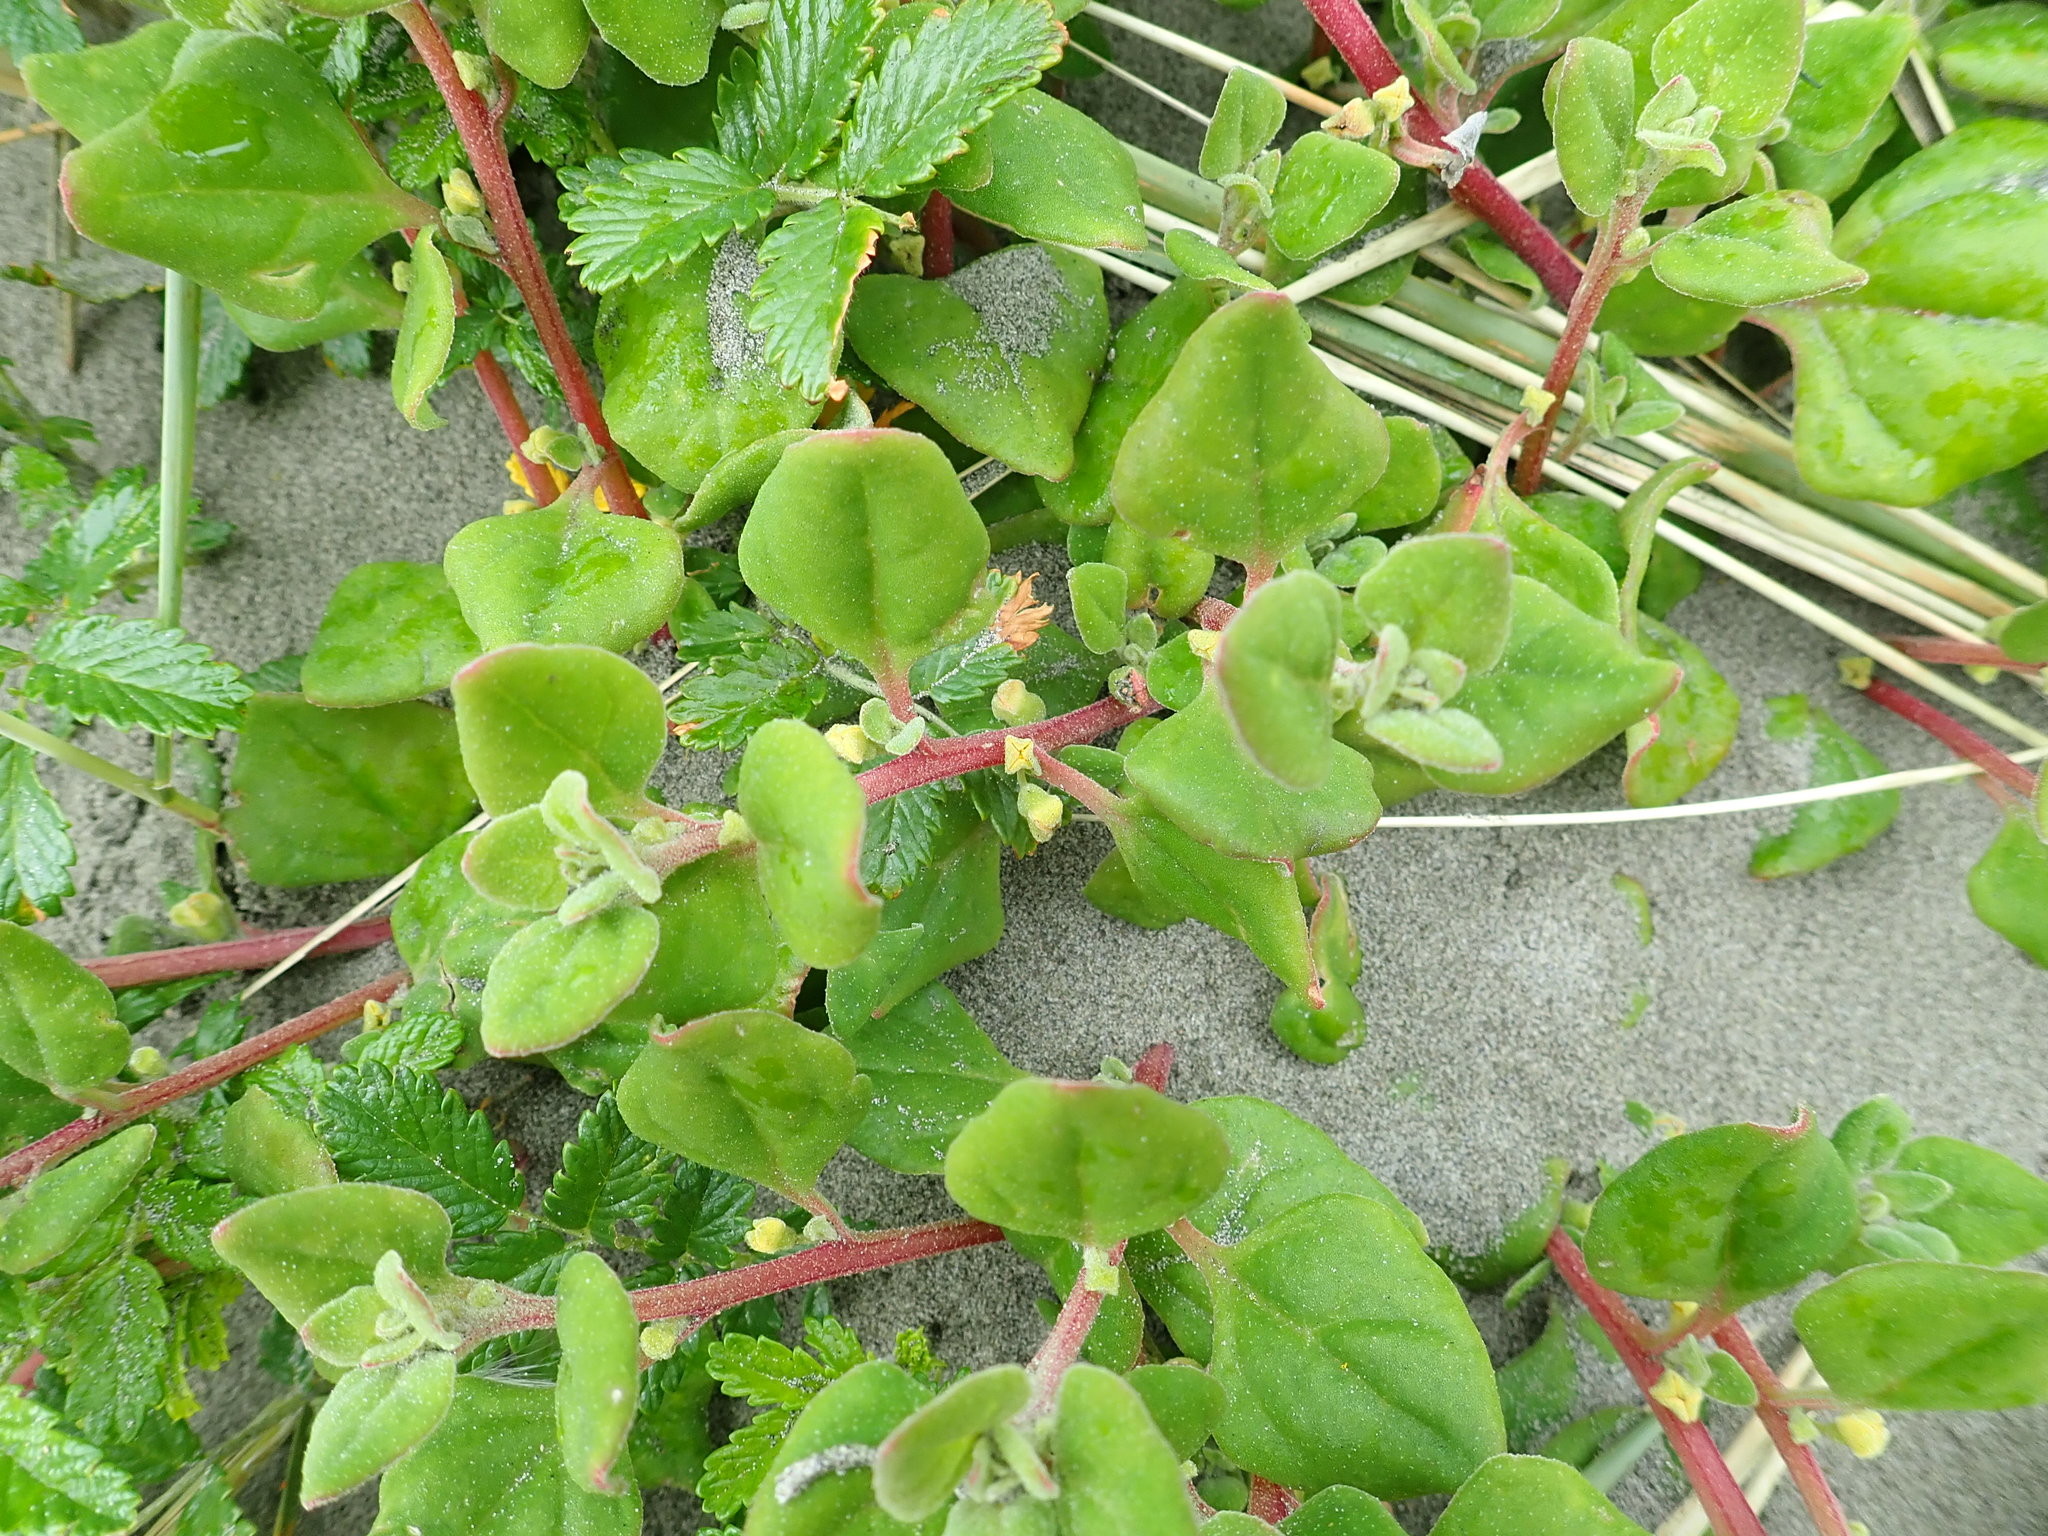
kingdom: Plantae
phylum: Tracheophyta
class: Magnoliopsida
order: Caryophyllales
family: Aizoaceae
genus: Tetragonia
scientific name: Tetragonia implexicoma
